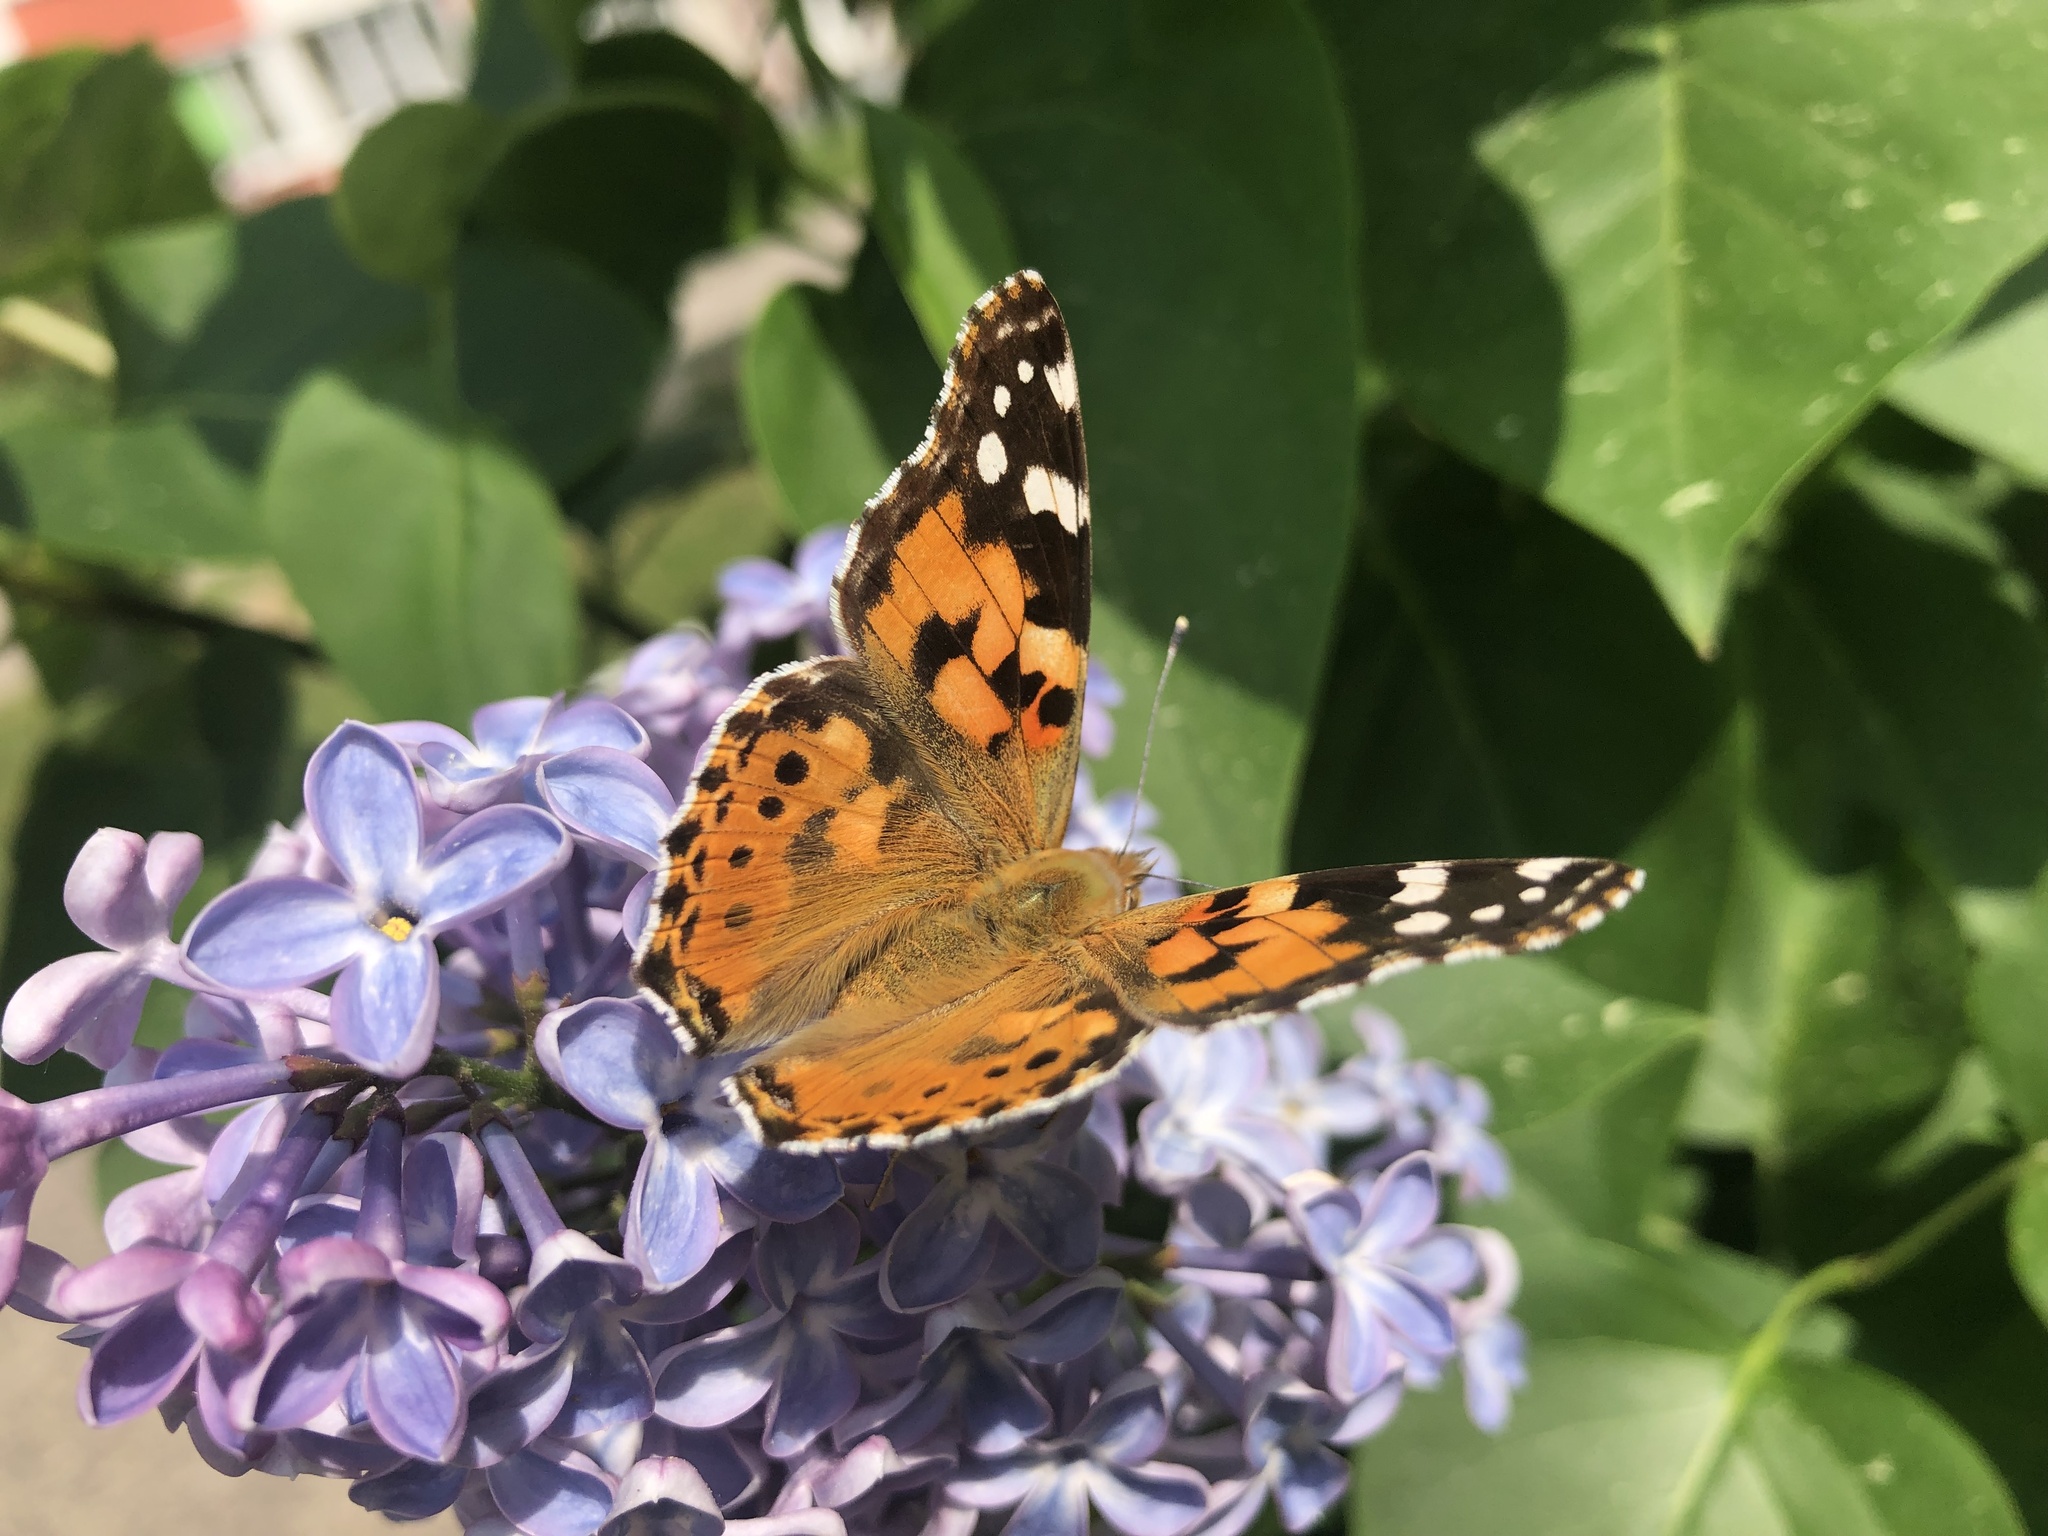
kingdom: Animalia
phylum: Arthropoda
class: Insecta
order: Lepidoptera
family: Nymphalidae
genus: Vanessa
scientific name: Vanessa cardui
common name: Painted lady
